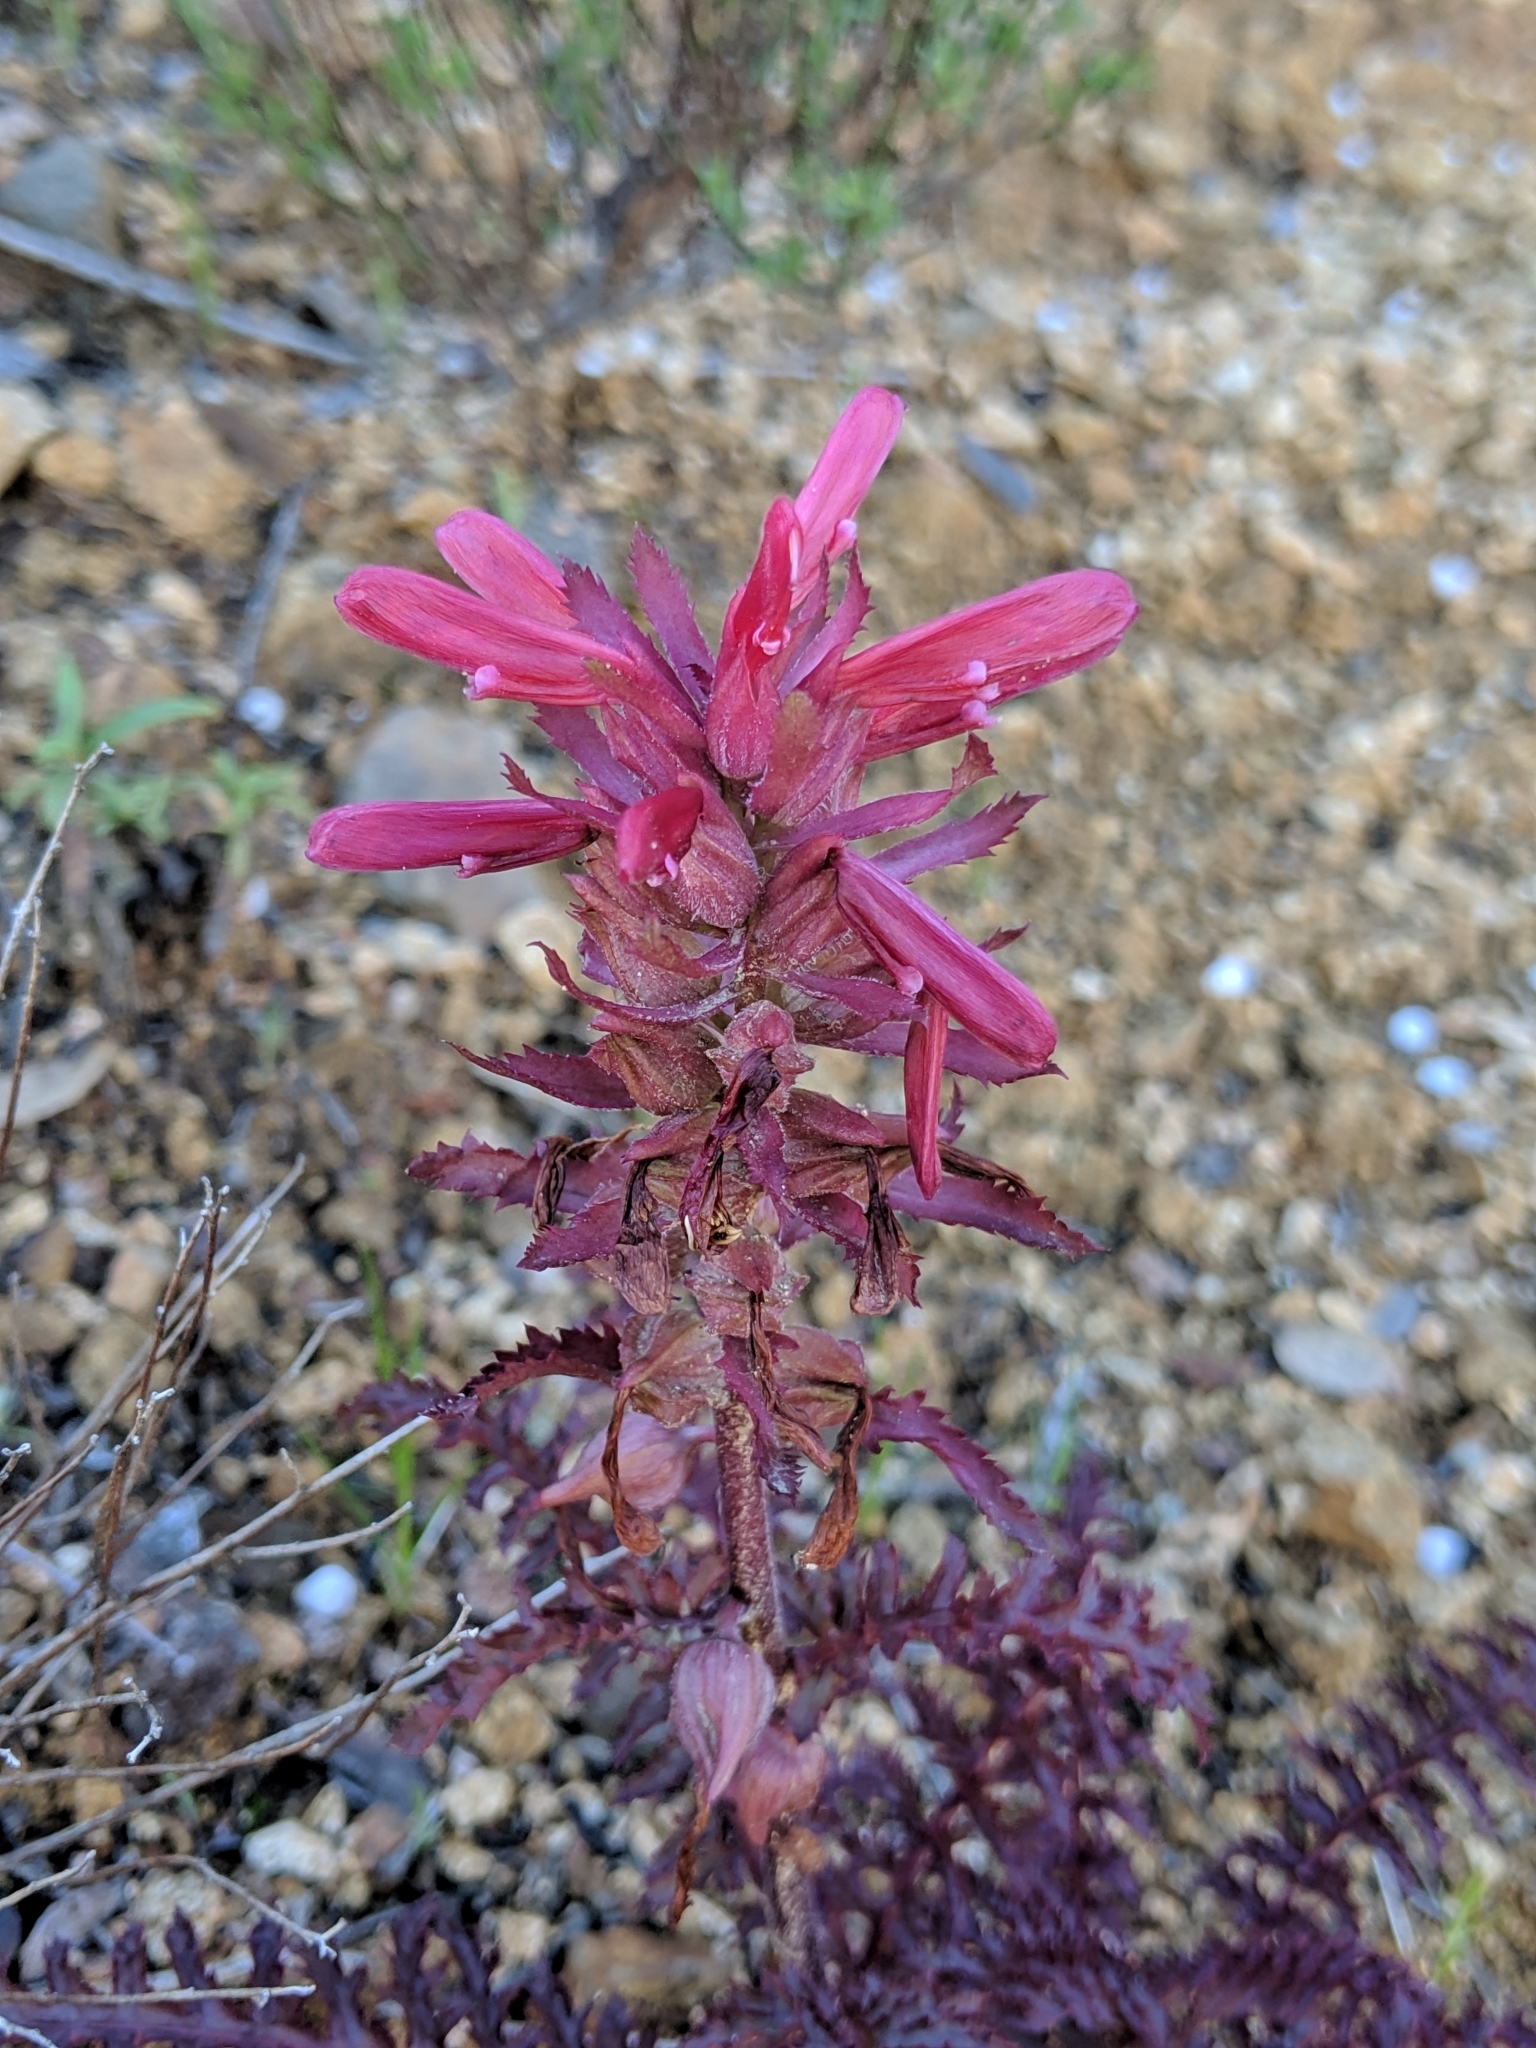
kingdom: Plantae
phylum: Tracheophyta
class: Magnoliopsida
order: Lamiales
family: Orobanchaceae
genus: Pedicularis
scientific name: Pedicularis densiflora
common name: Indian warrior
